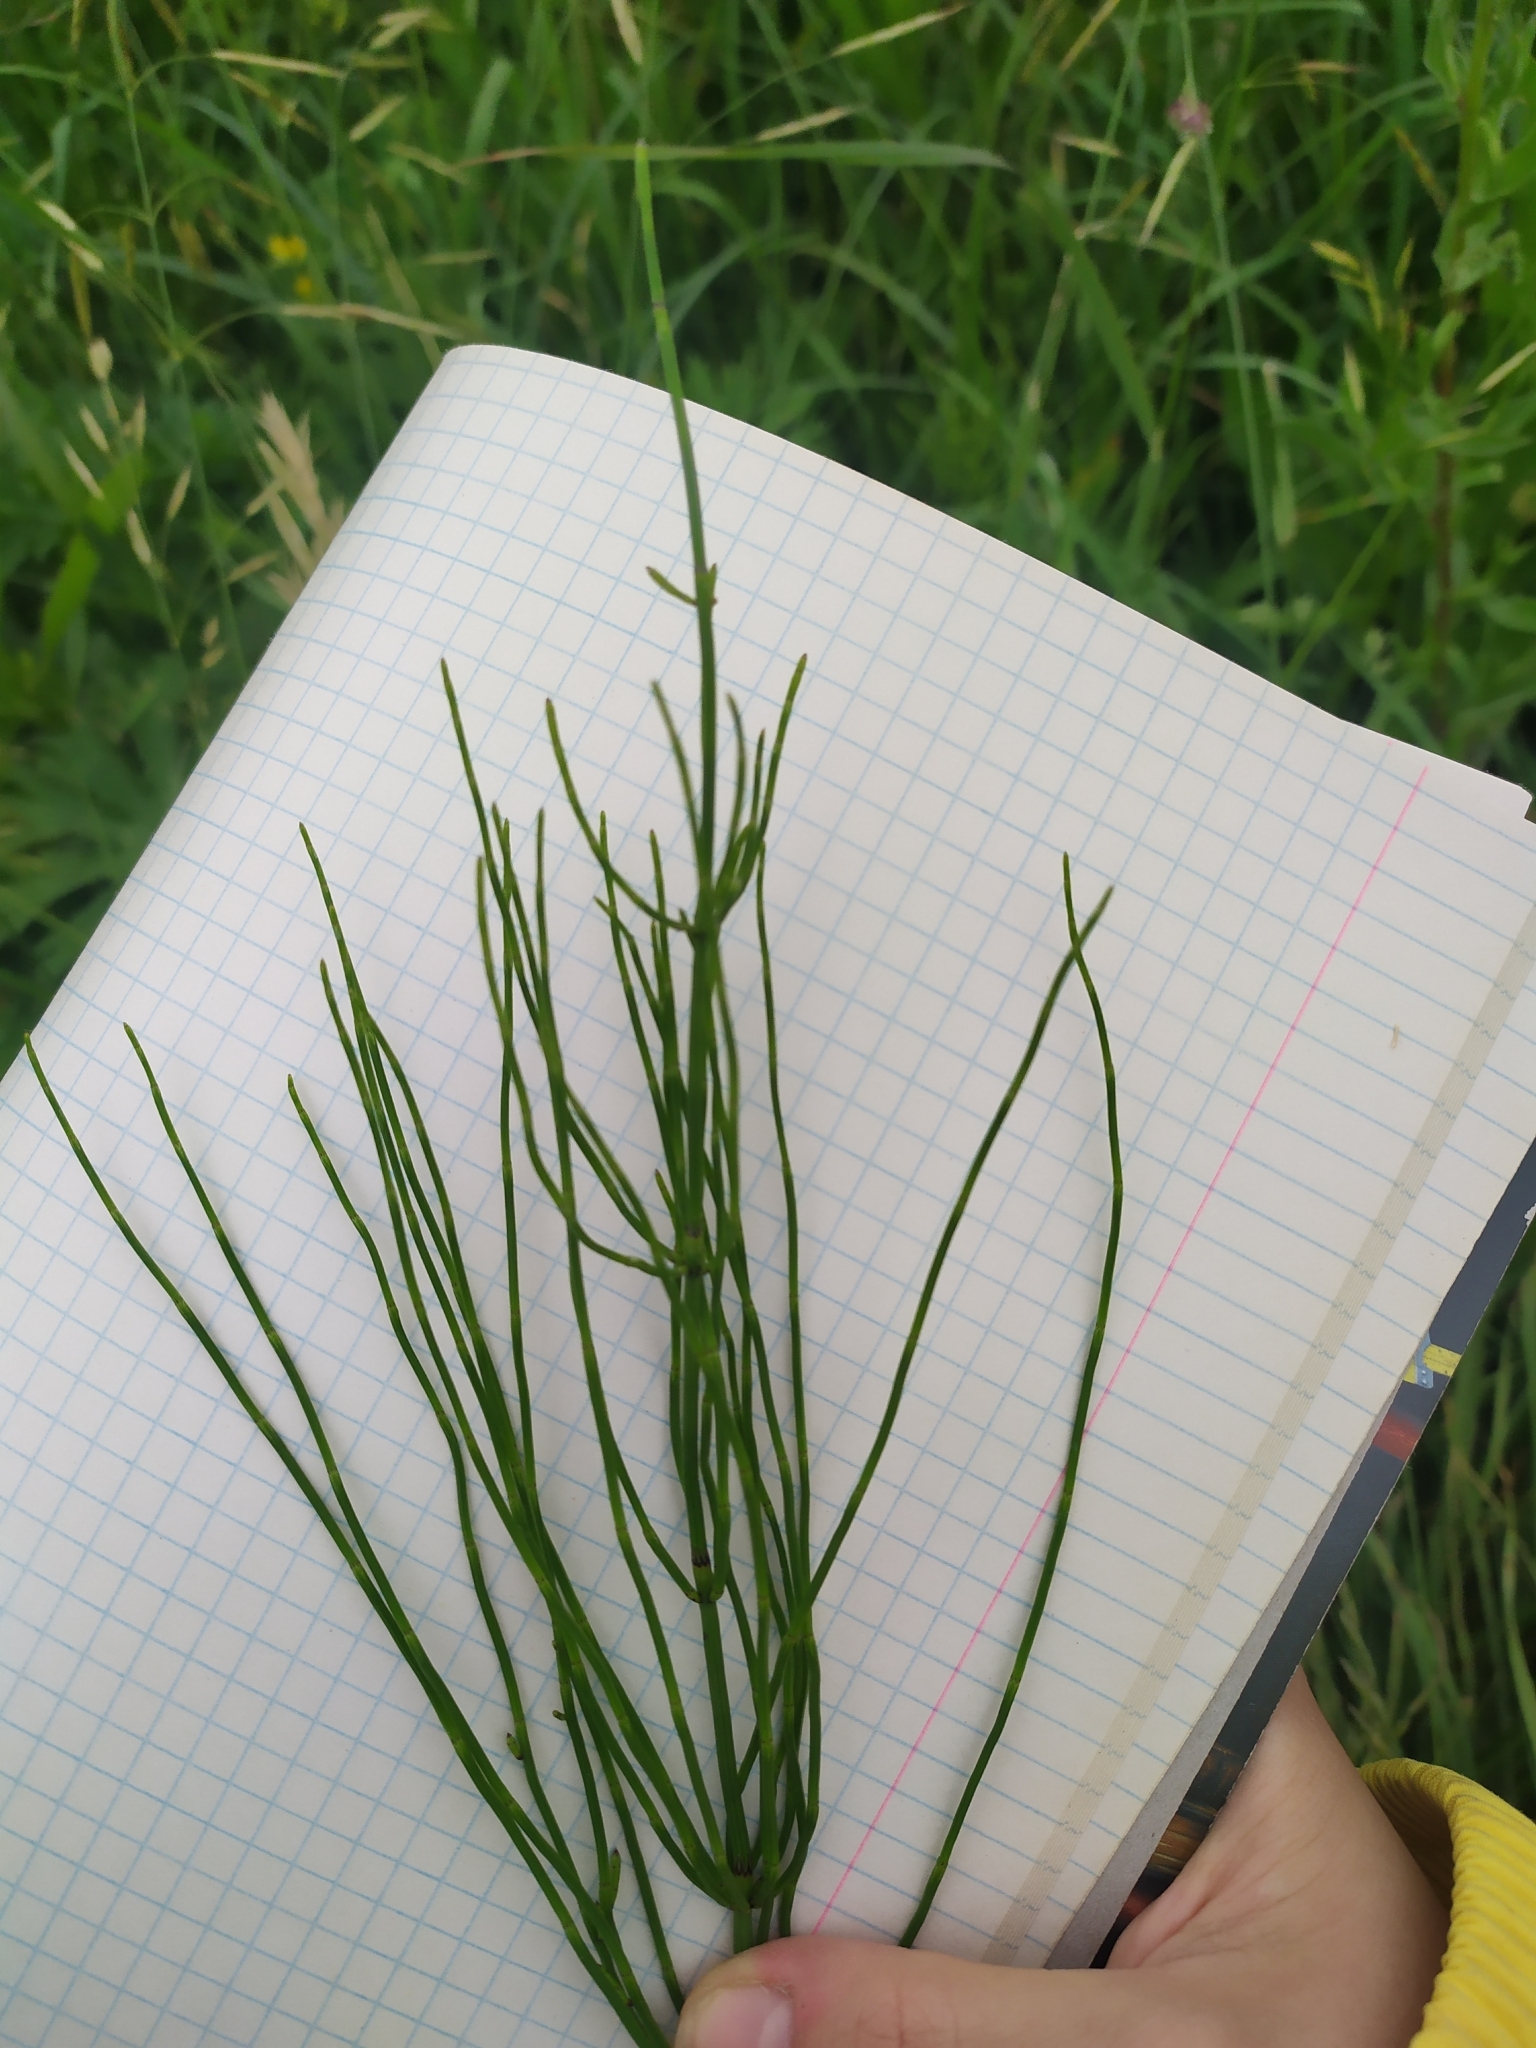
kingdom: Plantae
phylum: Tracheophyta
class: Polypodiopsida
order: Equisetales
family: Equisetaceae
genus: Equisetum
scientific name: Equisetum palustre
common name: Marsh horsetail
